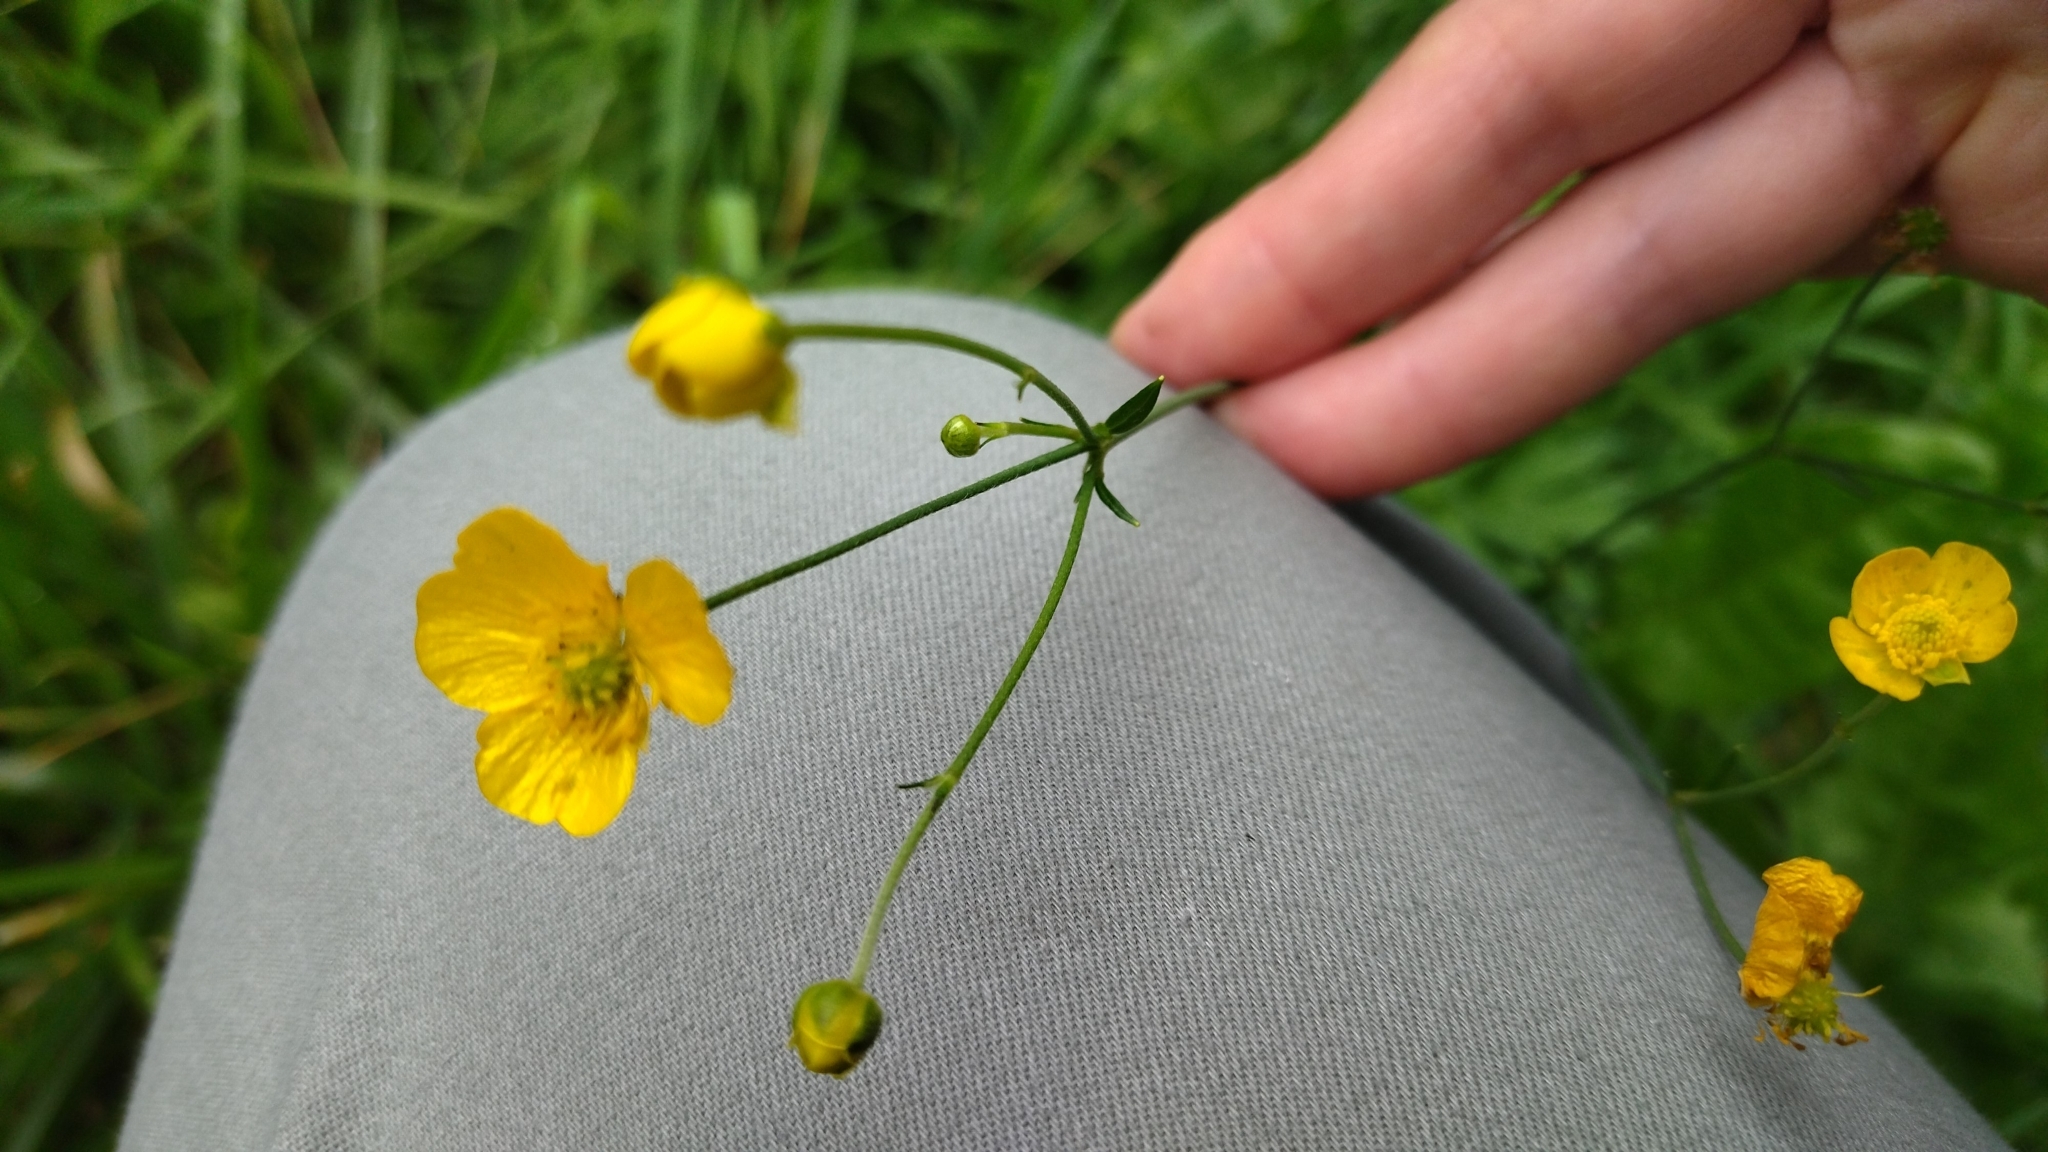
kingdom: Plantae
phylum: Tracheophyta
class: Magnoliopsida
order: Ranunculales
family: Ranunculaceae
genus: Ranunculus
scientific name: Ranunculus acris
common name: Meadow buttercup
